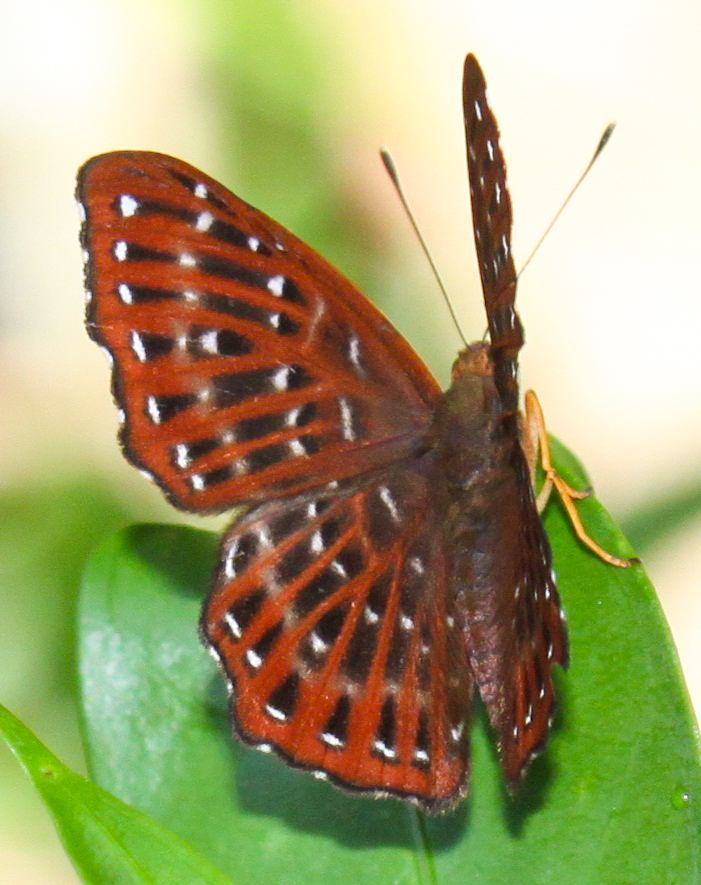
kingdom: Animalia
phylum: Arthropoda
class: Insecta
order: Lepidoptera
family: Riodinidae
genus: Zemeros
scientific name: Zemeros flegyas
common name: Punchinello
